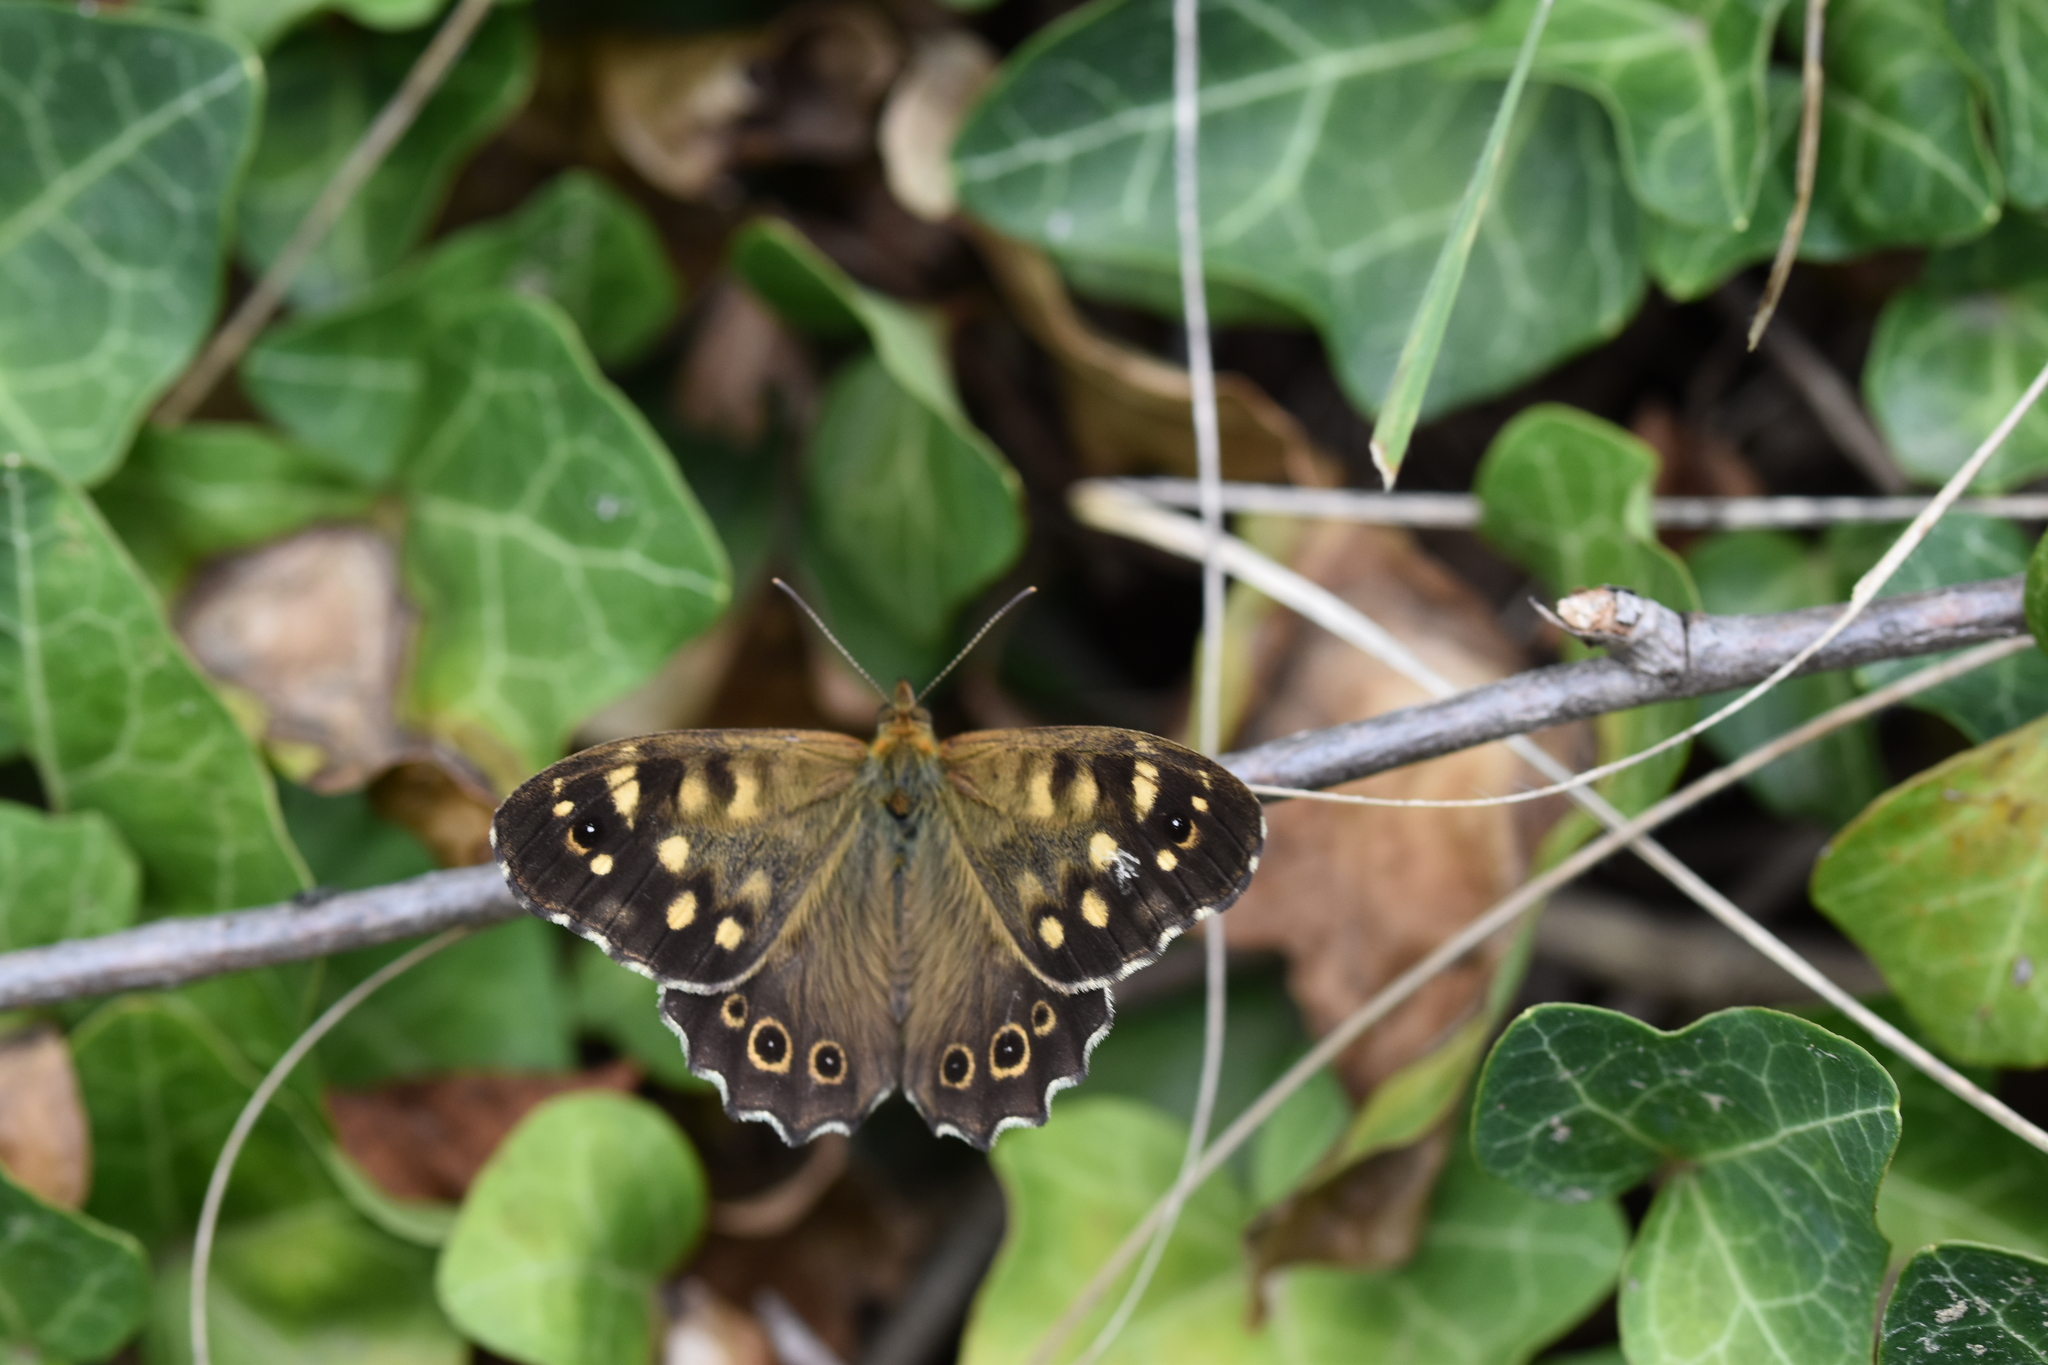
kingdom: Animalia
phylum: Arthropoda
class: Insecta
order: Lepidoptera
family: Nymphalidae
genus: Pararge
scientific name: Pararge aegeria
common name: Speckled wood
